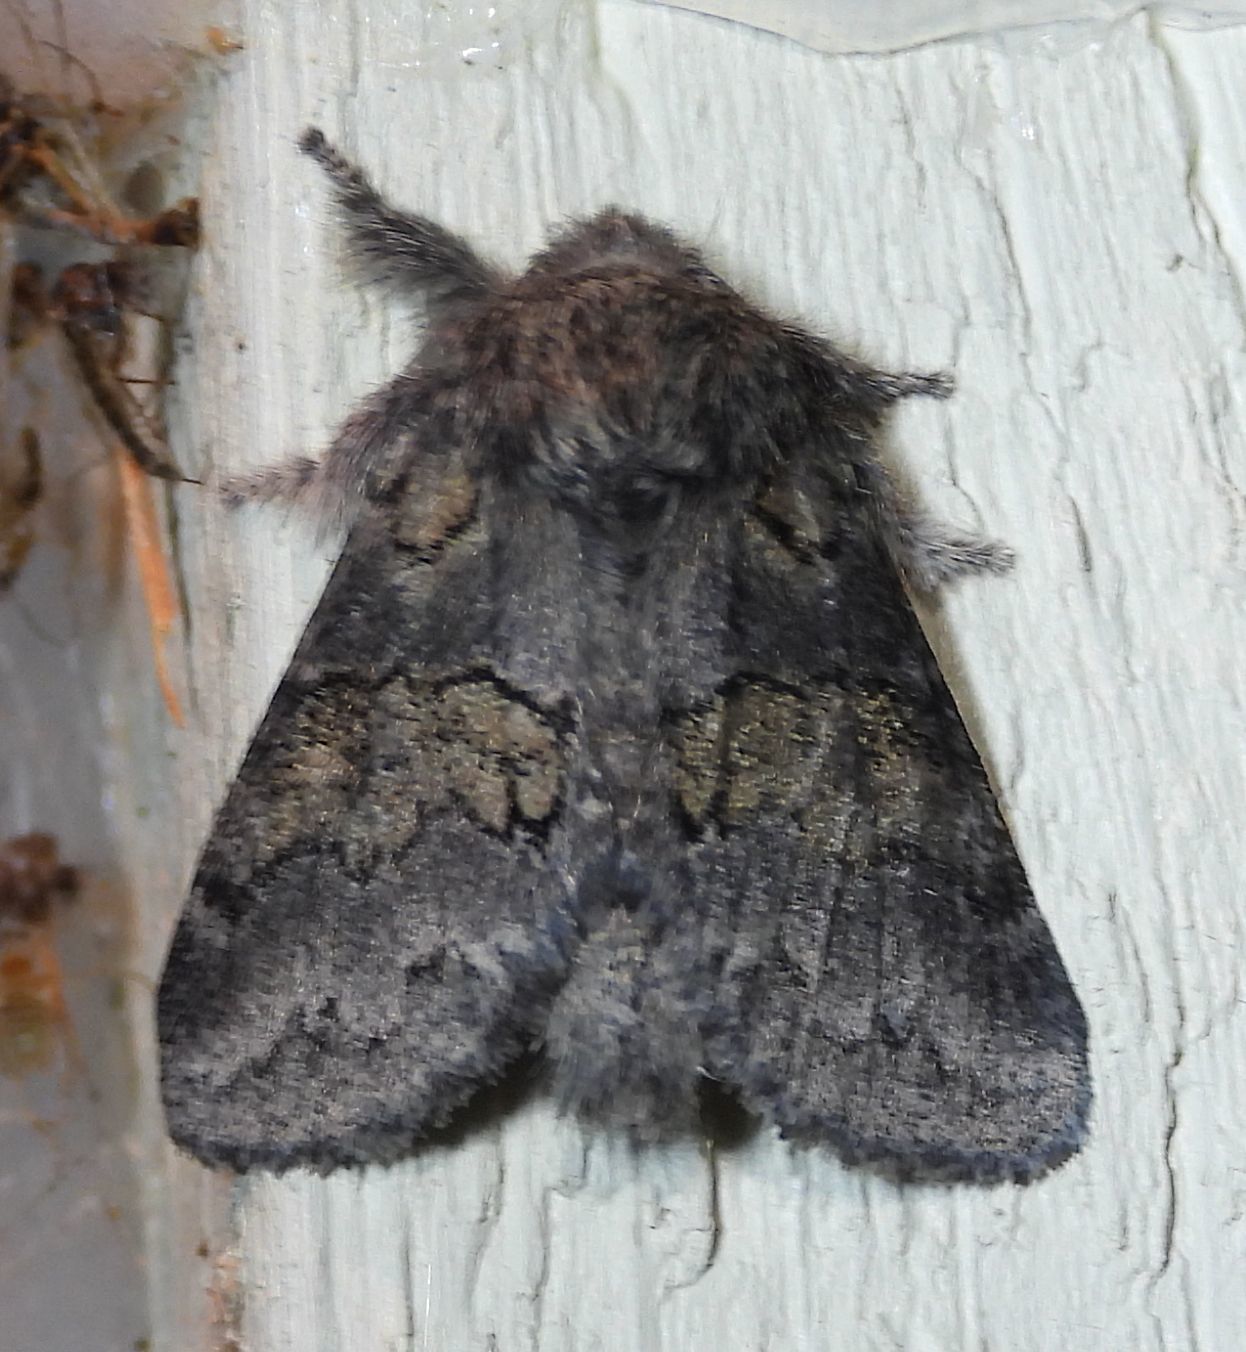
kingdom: Animalia
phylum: Arthropoda
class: Insecta
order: Lepidoptera
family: Notodontidae
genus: Gluphisia
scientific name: Gluphisia septentrionis
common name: Common gluphisia
